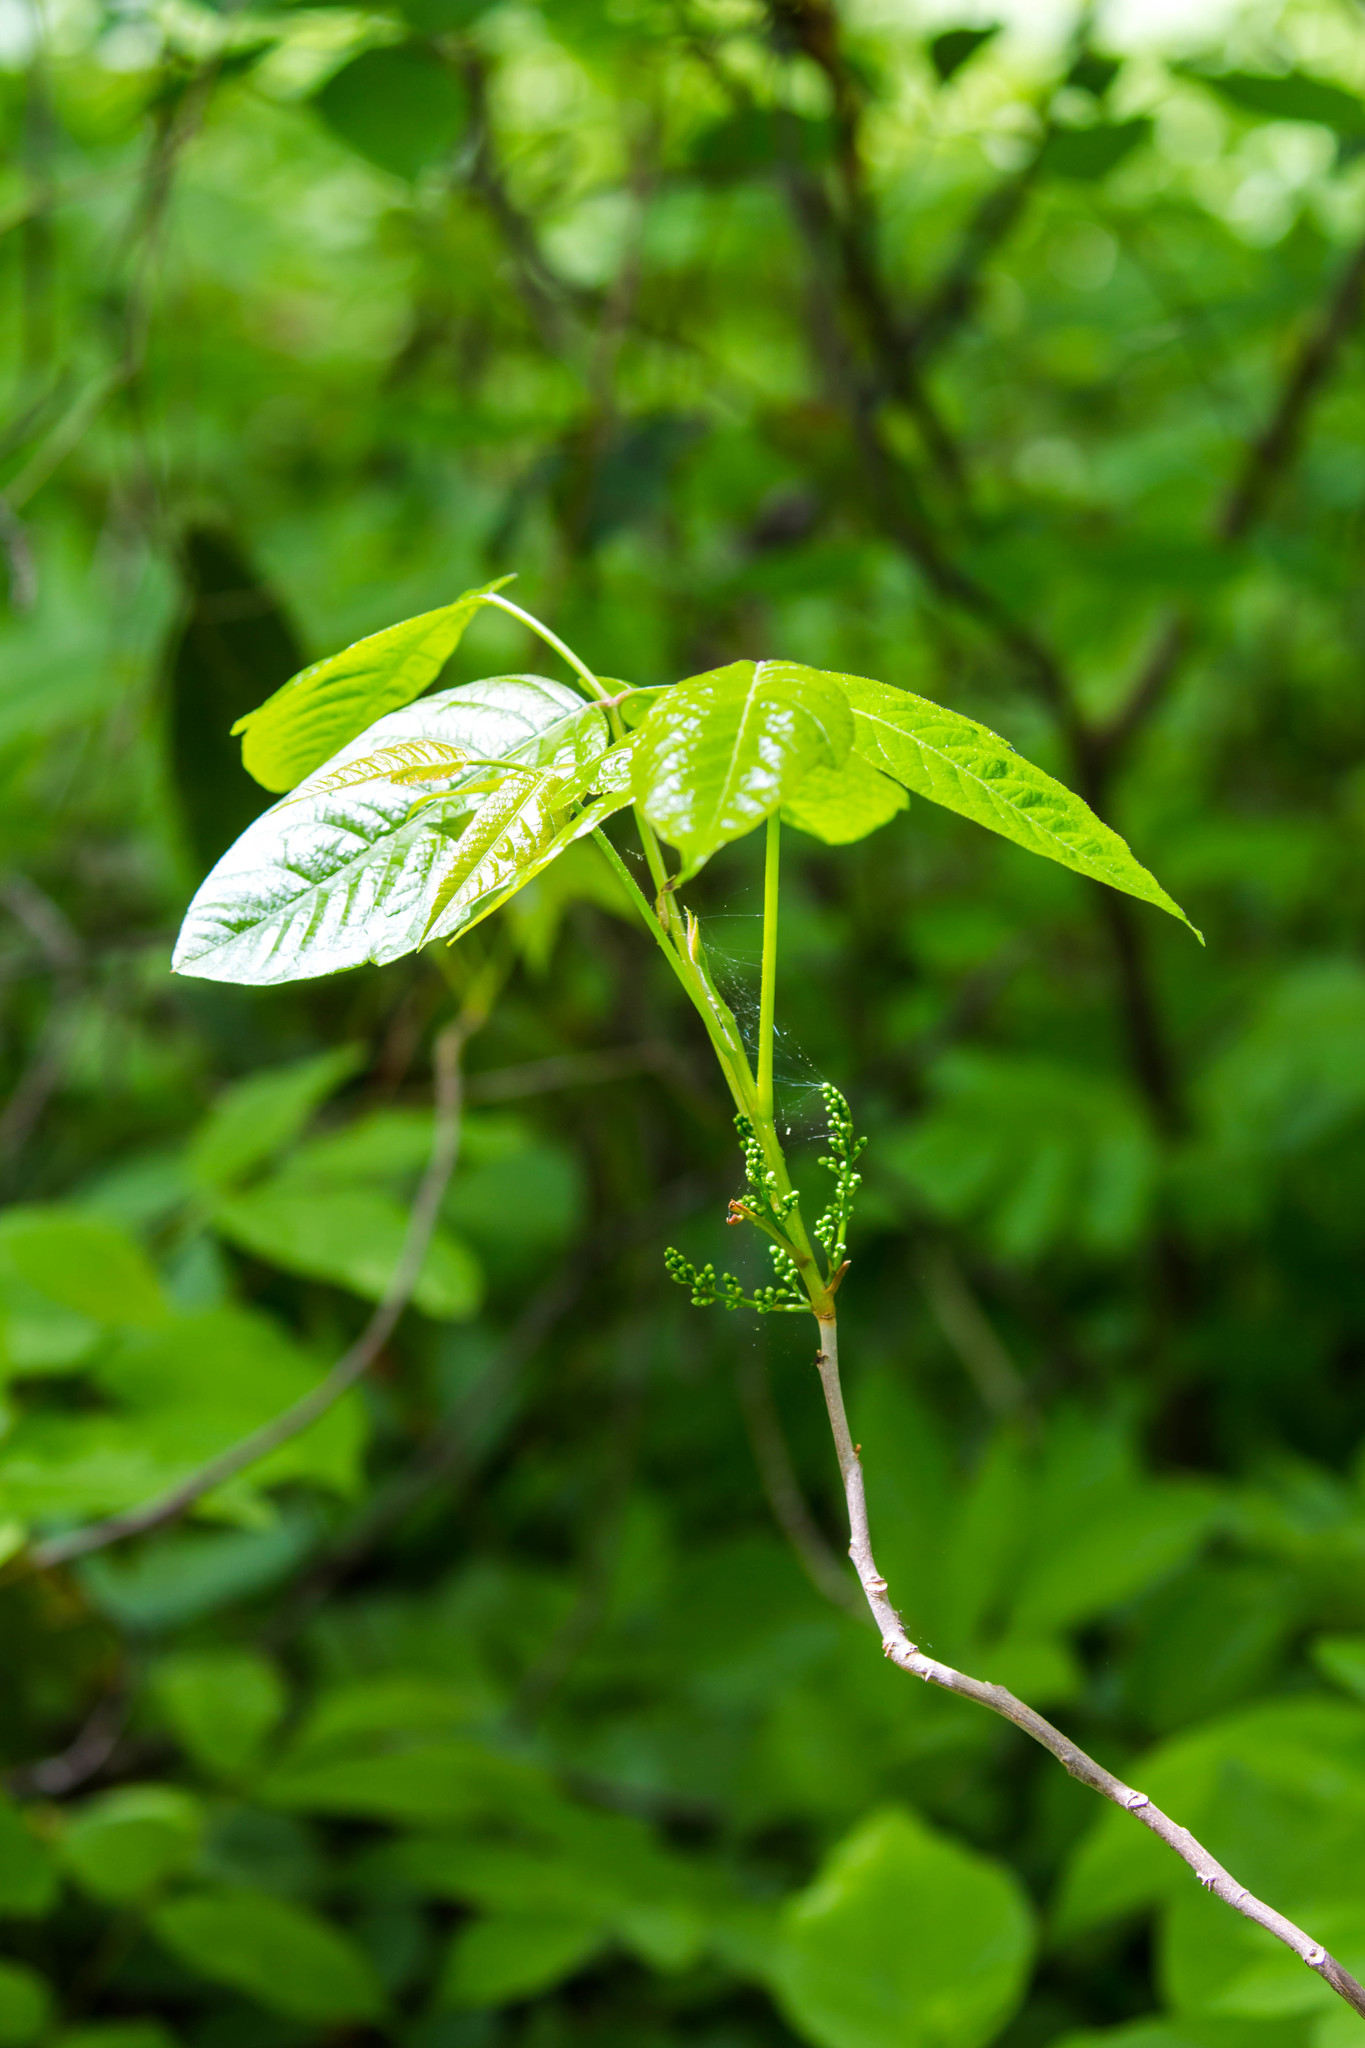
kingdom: Plantae
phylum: Tracheophyta
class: Magnoliopsida
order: Sapindales
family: Anacardiaceae
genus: Toxicodendron
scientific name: Toxicodendron radicans
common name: Poison ivy
